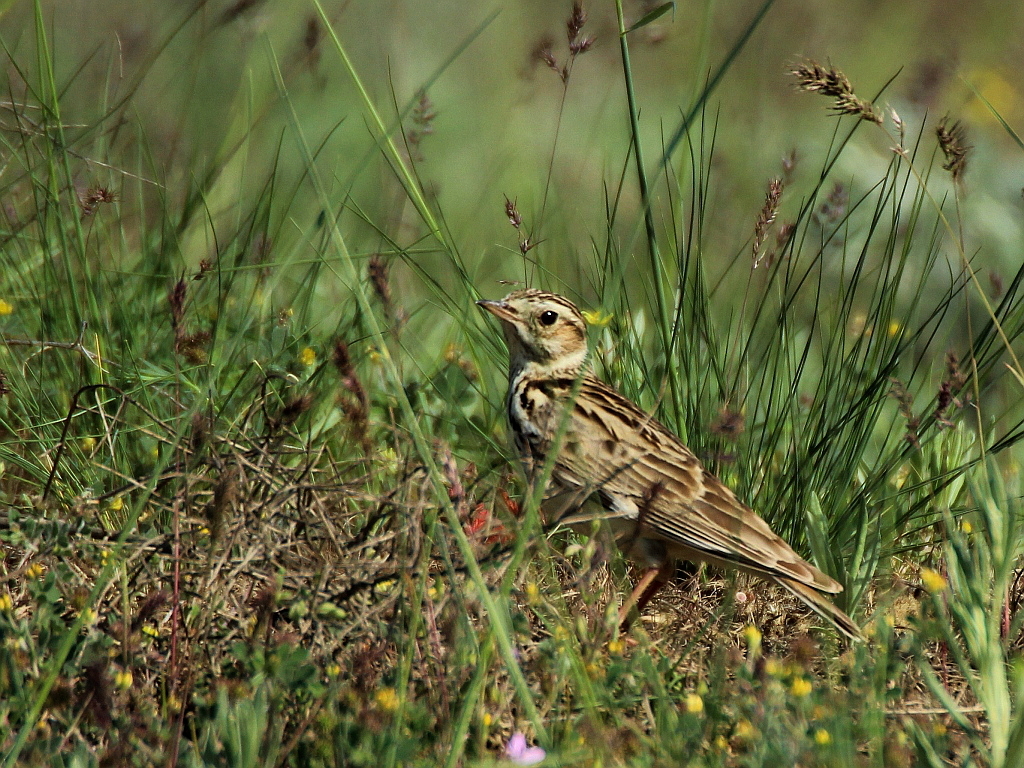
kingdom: Animalia
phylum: Chordata
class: Aves
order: Passeriformes
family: Alaudidae
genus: Lullula
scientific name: Lullula arborea
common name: Woodlark
